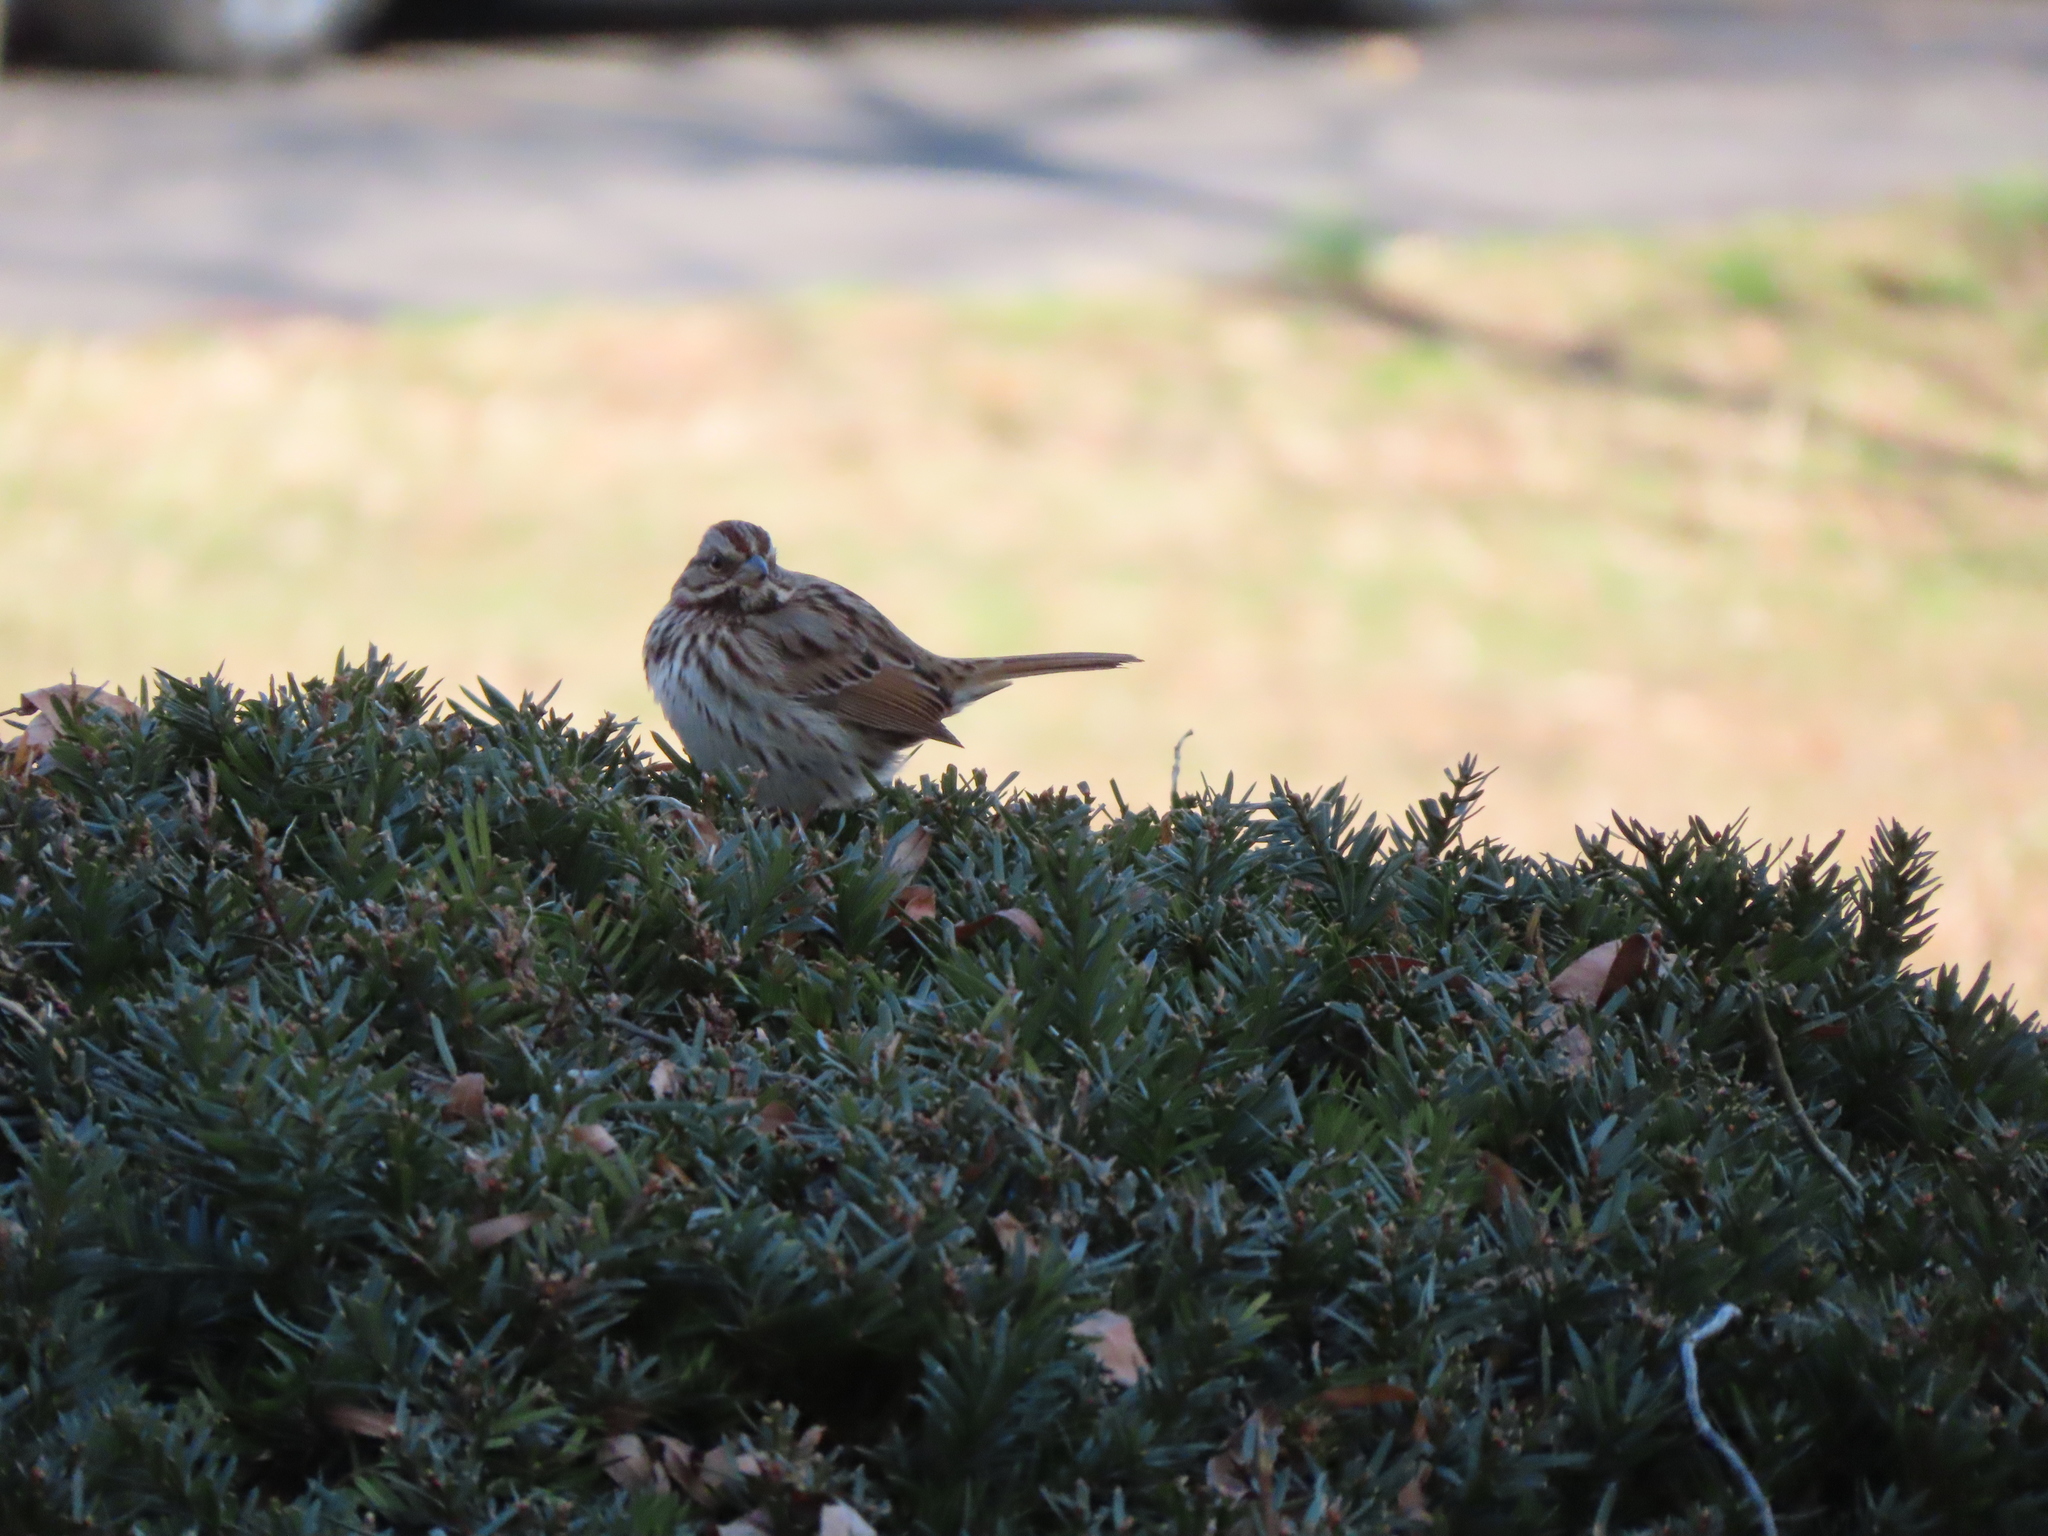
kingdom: Animalia
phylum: Chordata
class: Aves
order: Passeriformes
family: Passerellidae
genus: Melospiza
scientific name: Melospiza melodia
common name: Song sparrow
